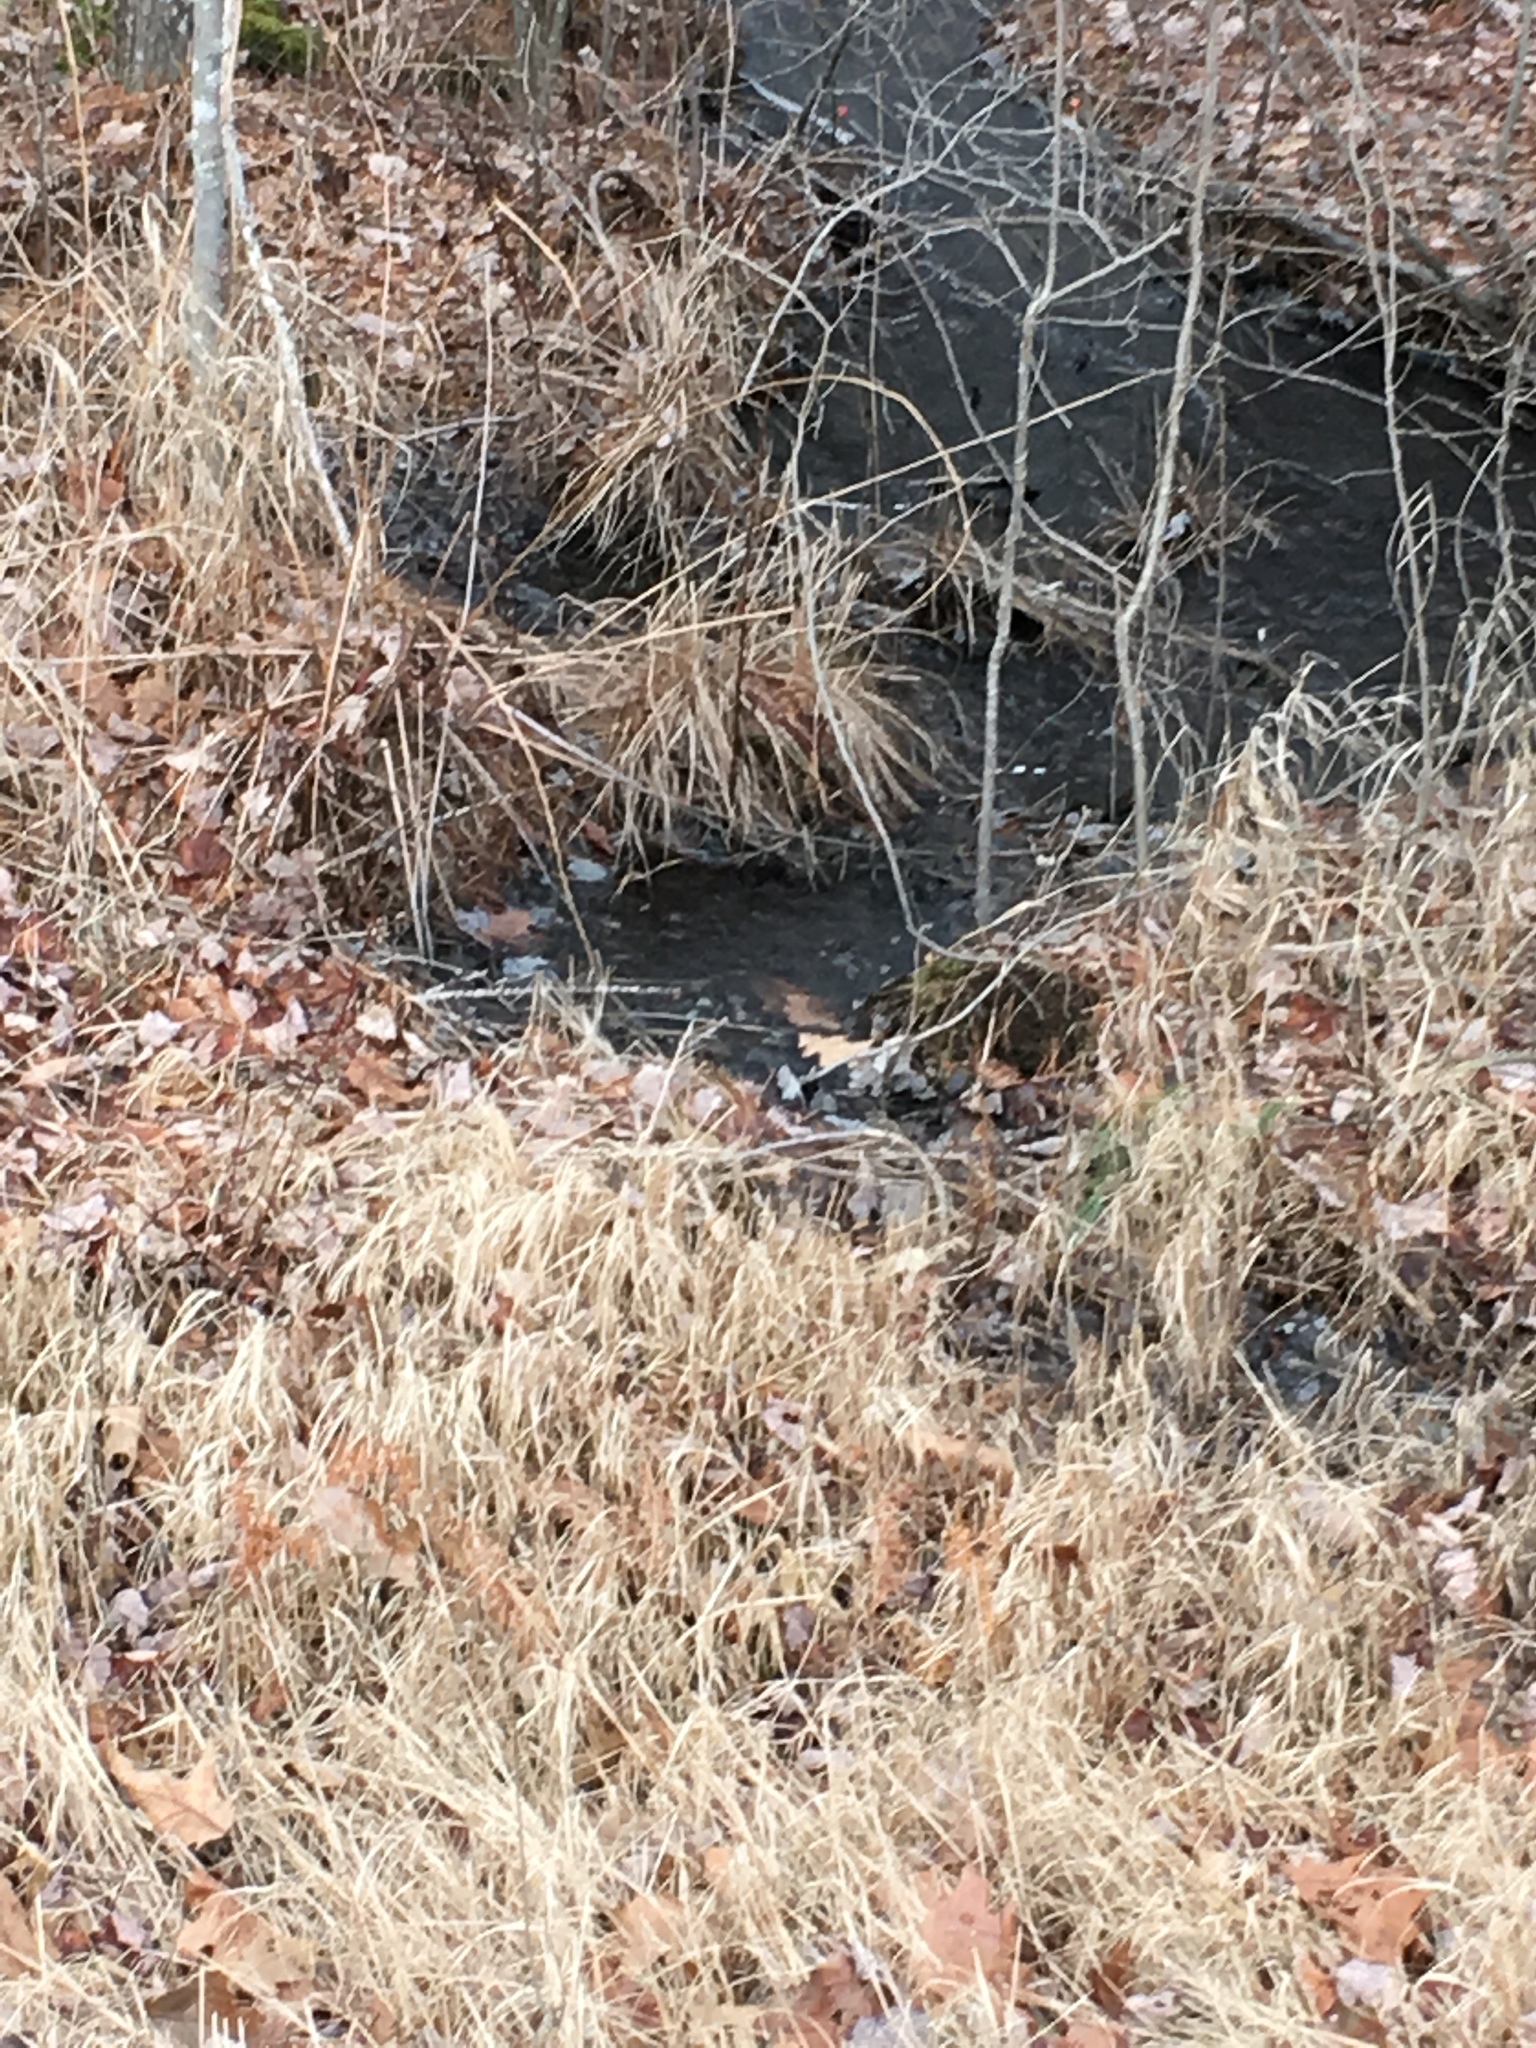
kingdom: Plantae
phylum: Tracheophyta
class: Liliopsida
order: Poales
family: Cyperaceae
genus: Carex
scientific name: Carex stricta
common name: Hummock sedge
